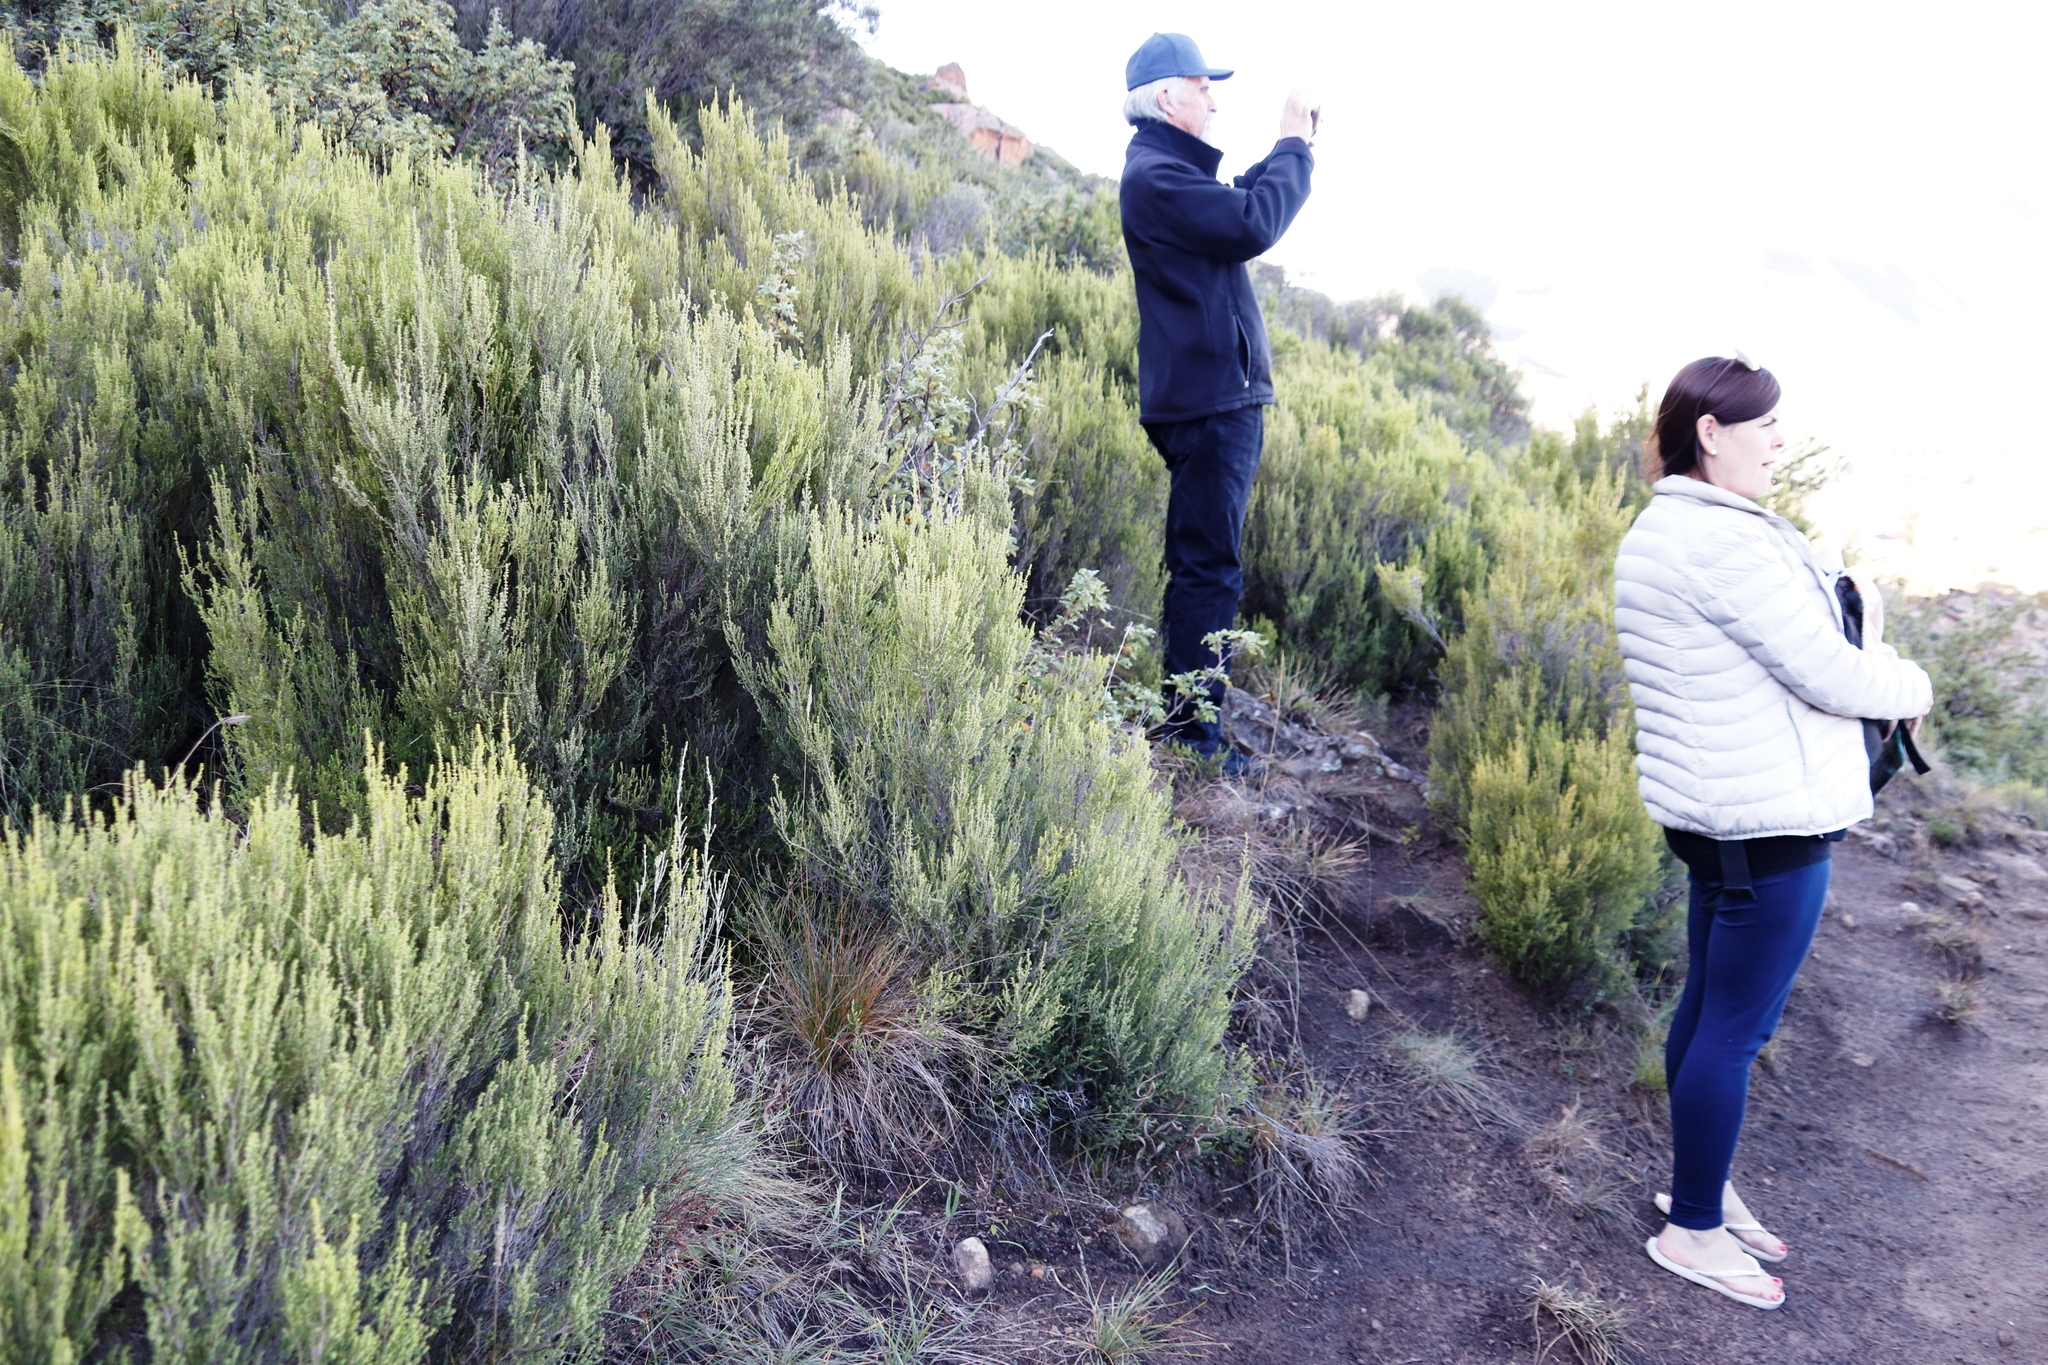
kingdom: Plantae
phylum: Tracheophyta
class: Magnoliopsida
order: Ericales
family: Ericaceae
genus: Erica
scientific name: Erica maesta
